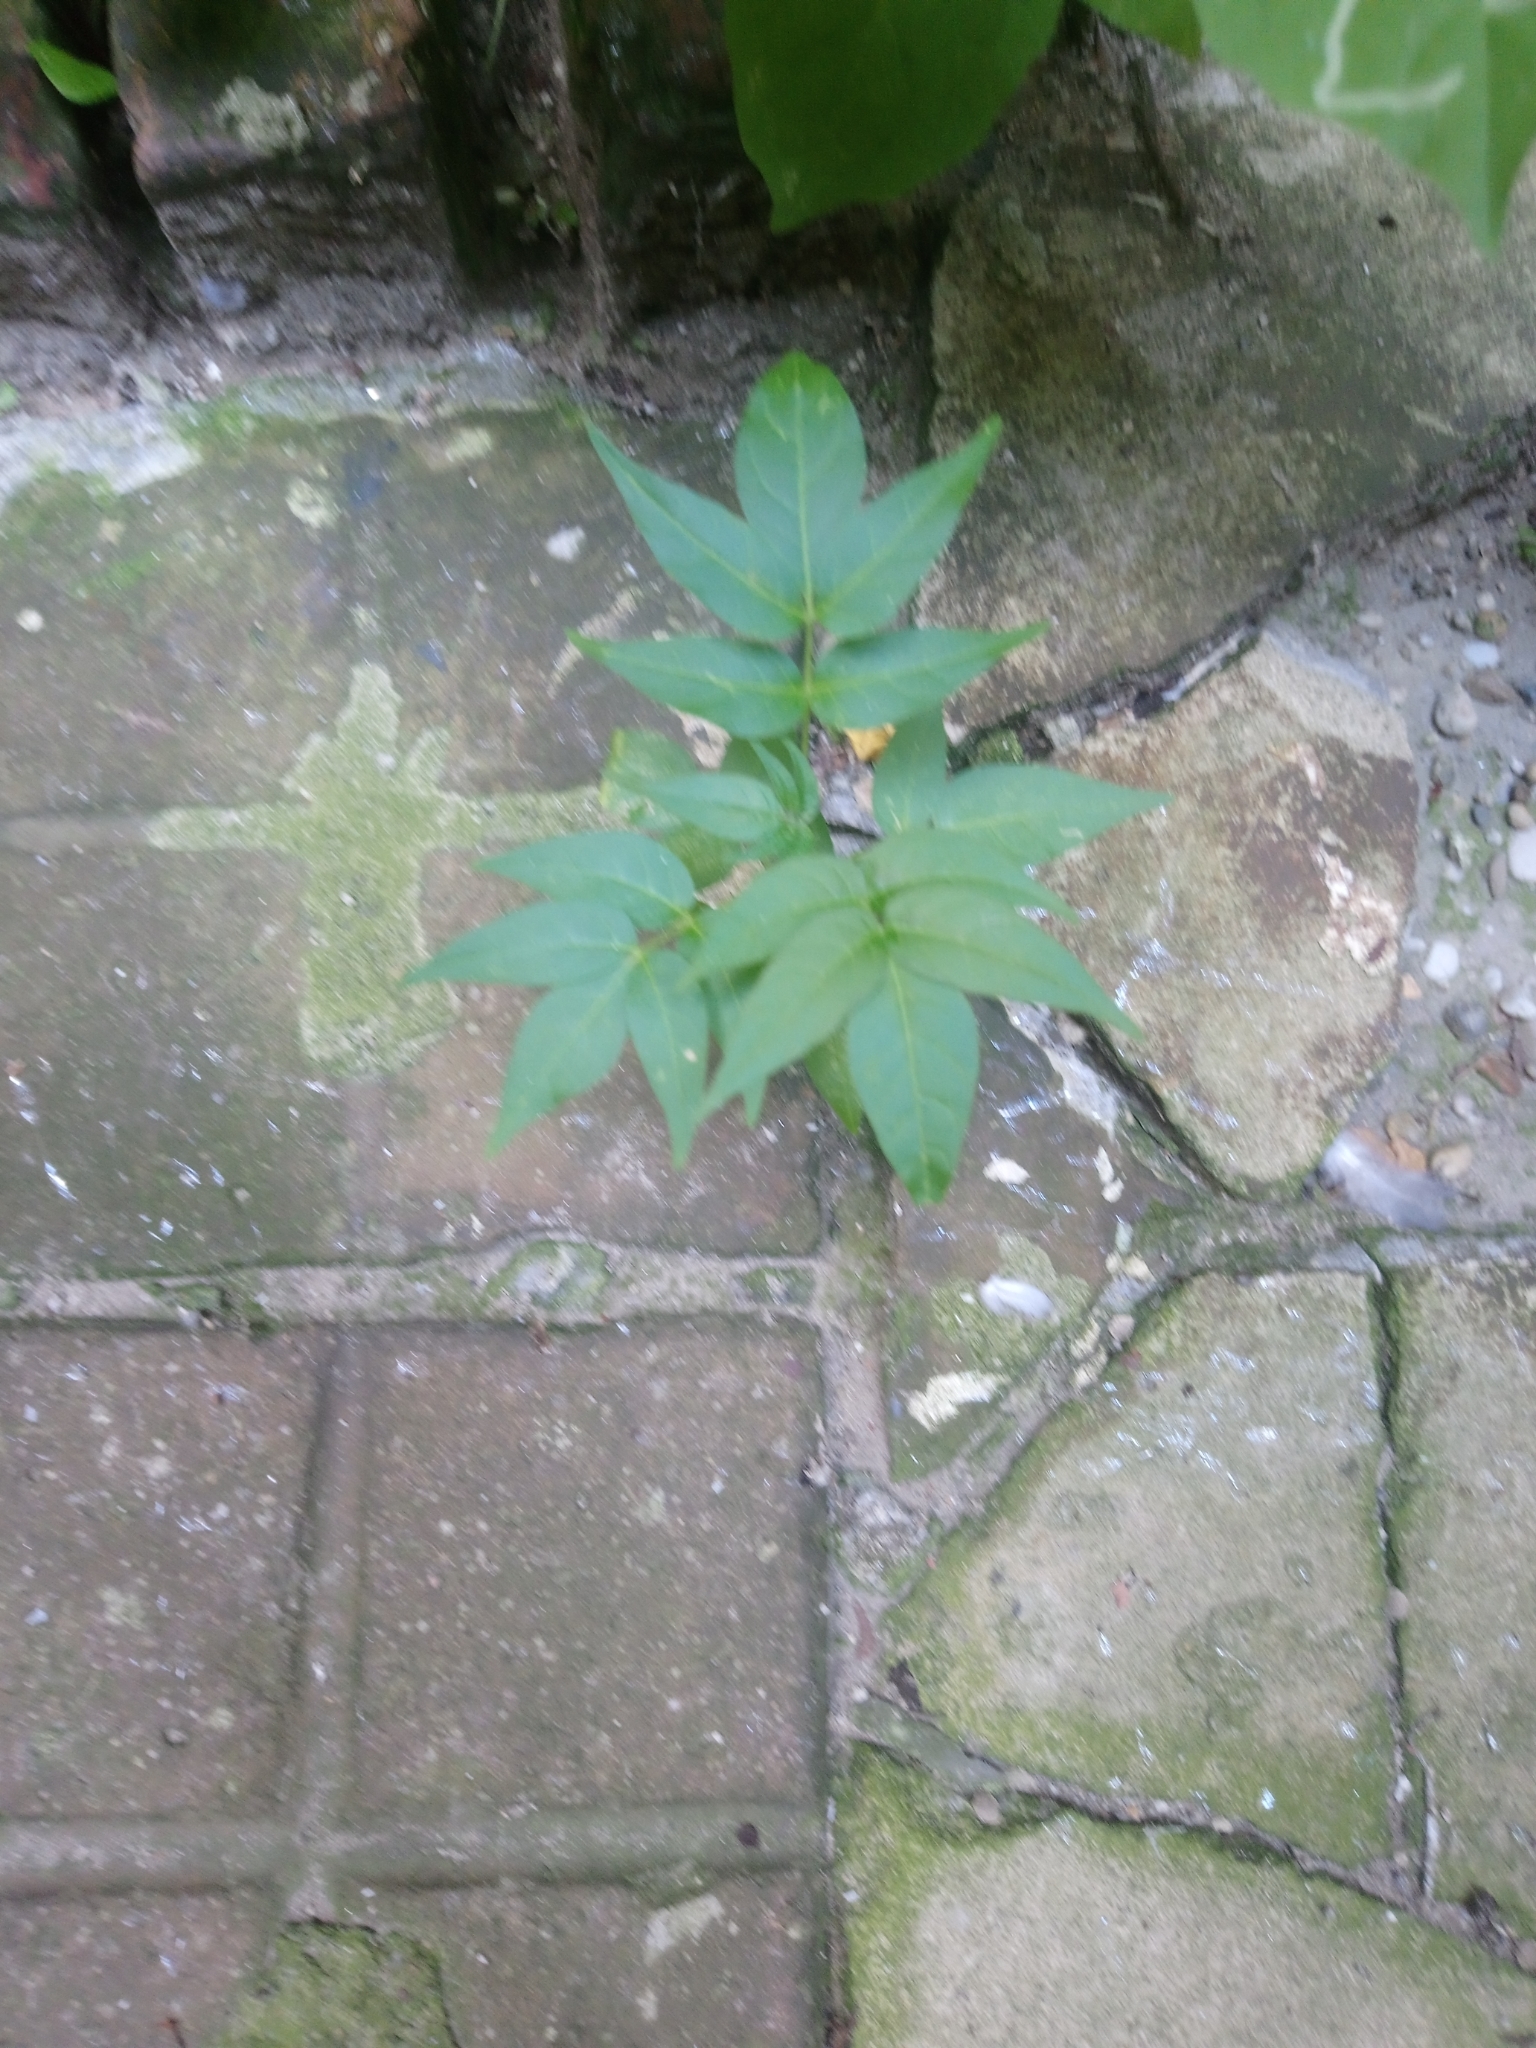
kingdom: Plantae
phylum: Tracheophyta
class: Magnoliopsida
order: Sapindales
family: Simaroubaceae
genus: Ailanthus
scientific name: Ailanthus altissima
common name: Tree-of-heaven
